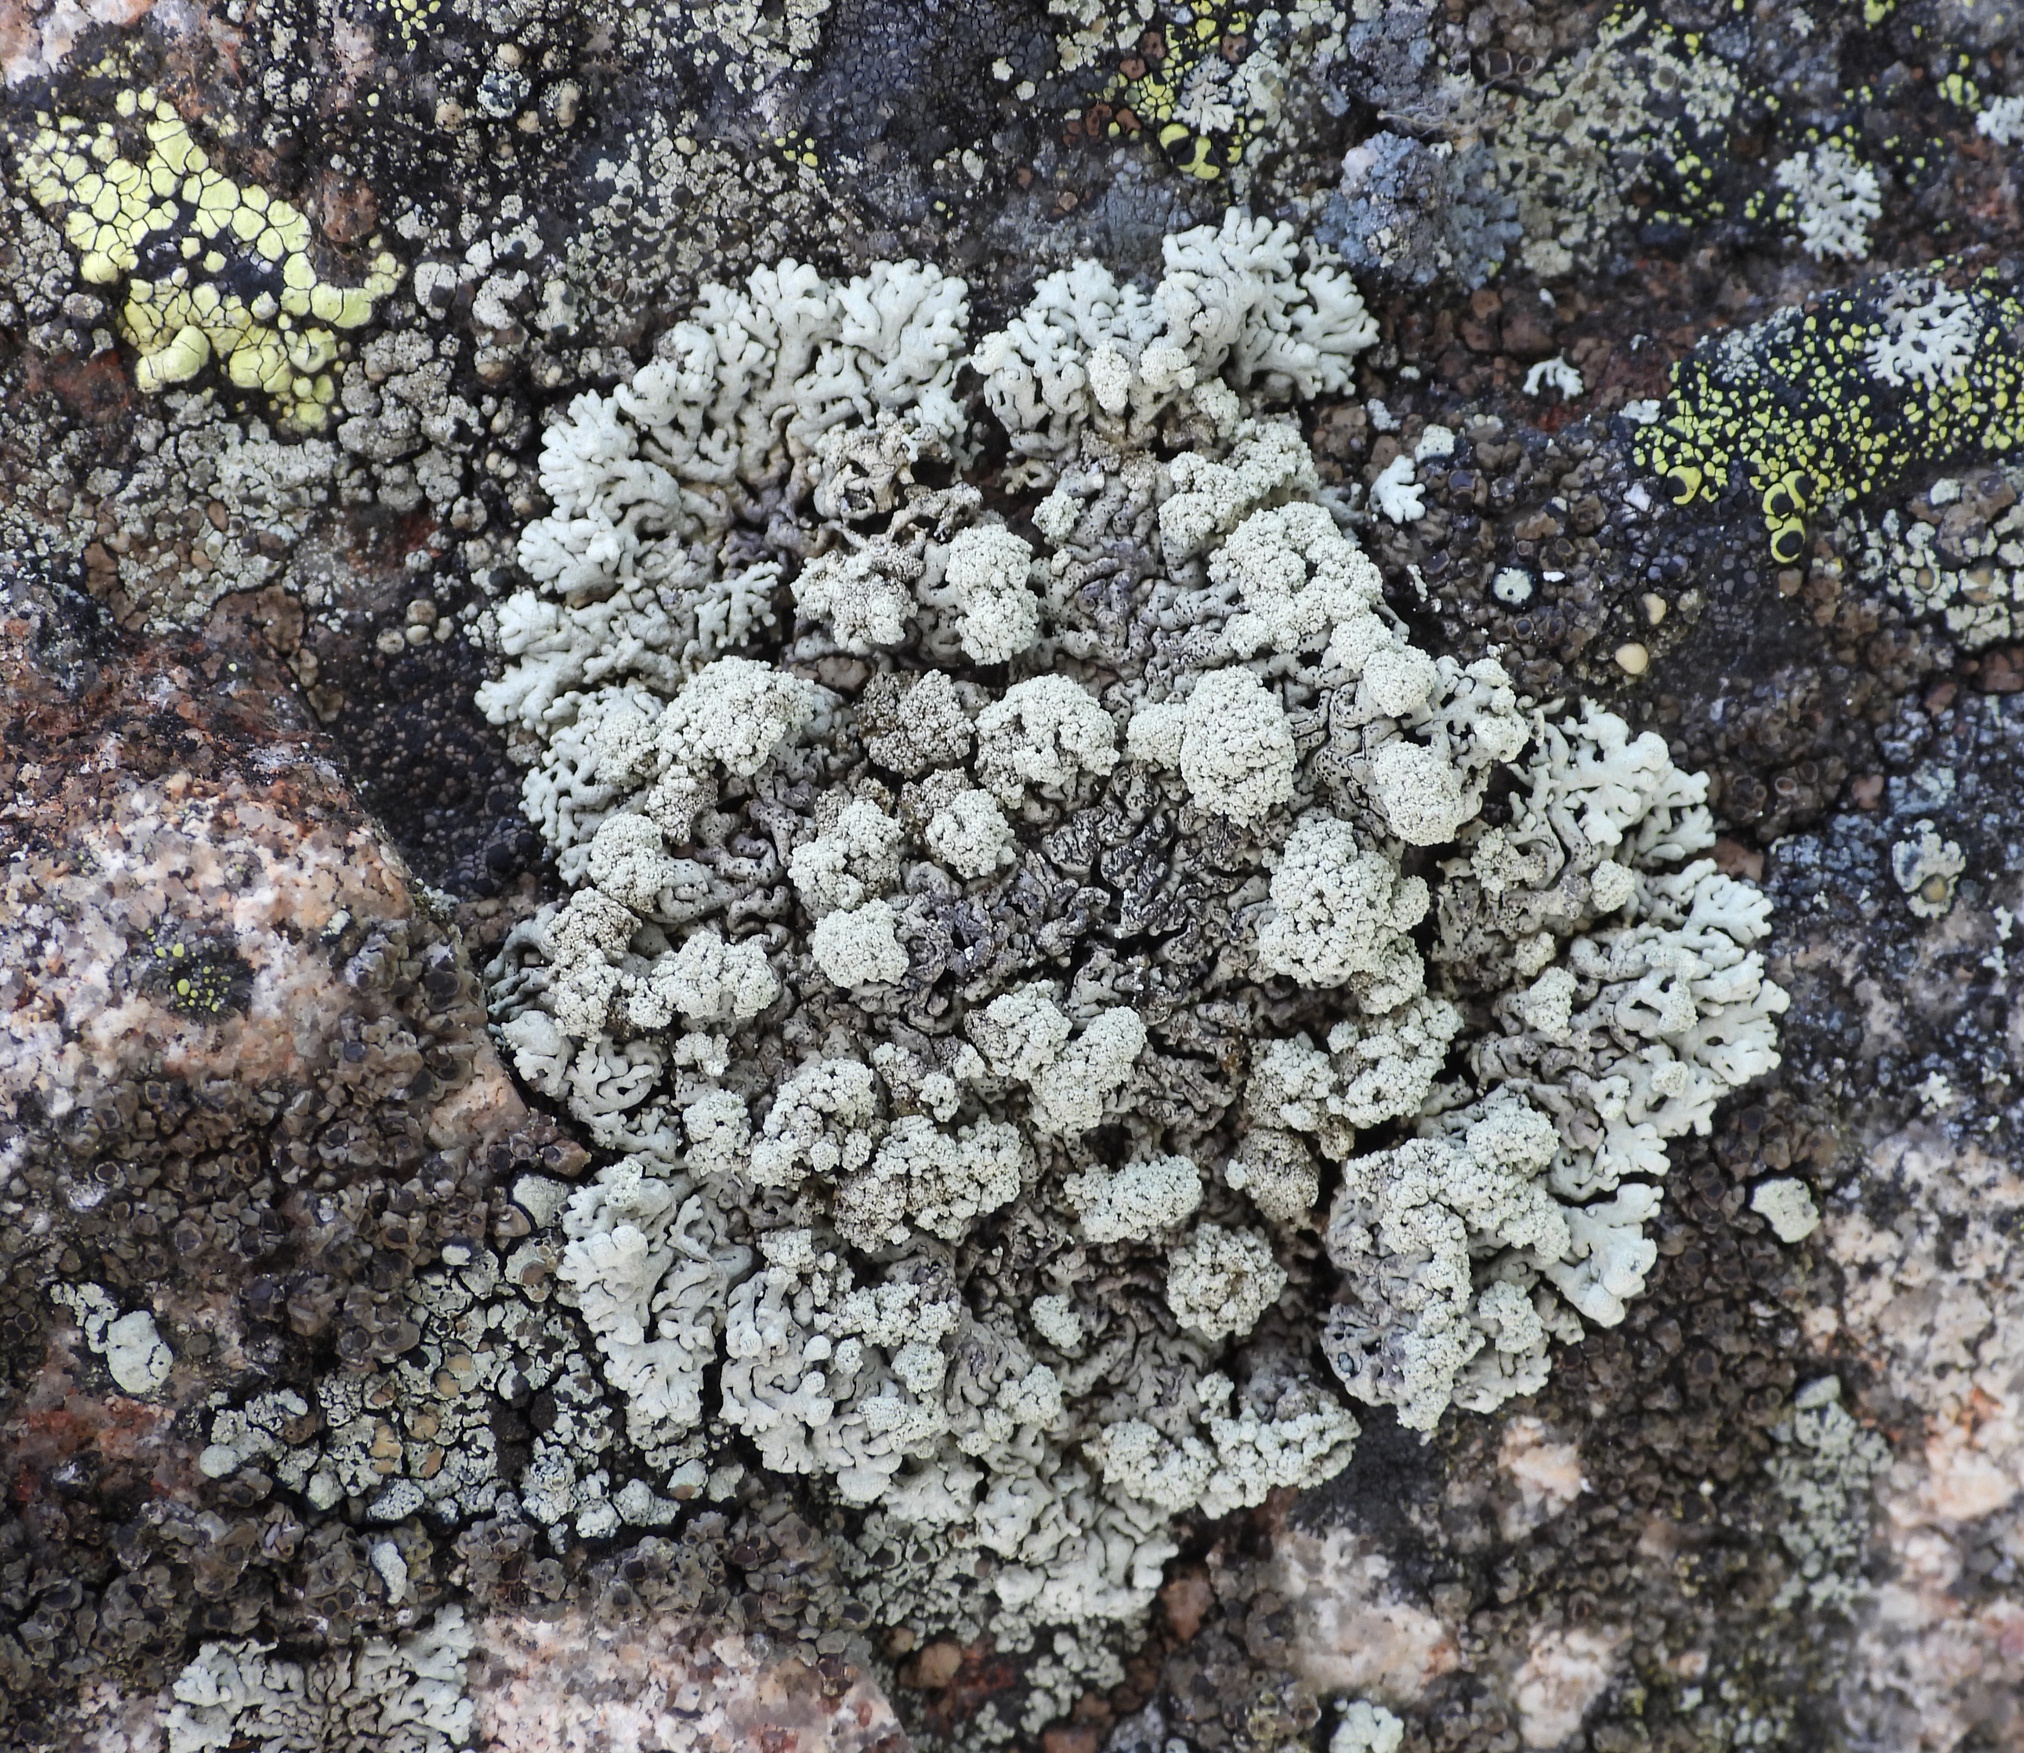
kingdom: Fungi
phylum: Ascomycota
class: Lecanoromycetes
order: Lecanorales
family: Parmeliaceae
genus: Arctoparmelia
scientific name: Arctoparmelia incurva
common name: Bent ring lichen
